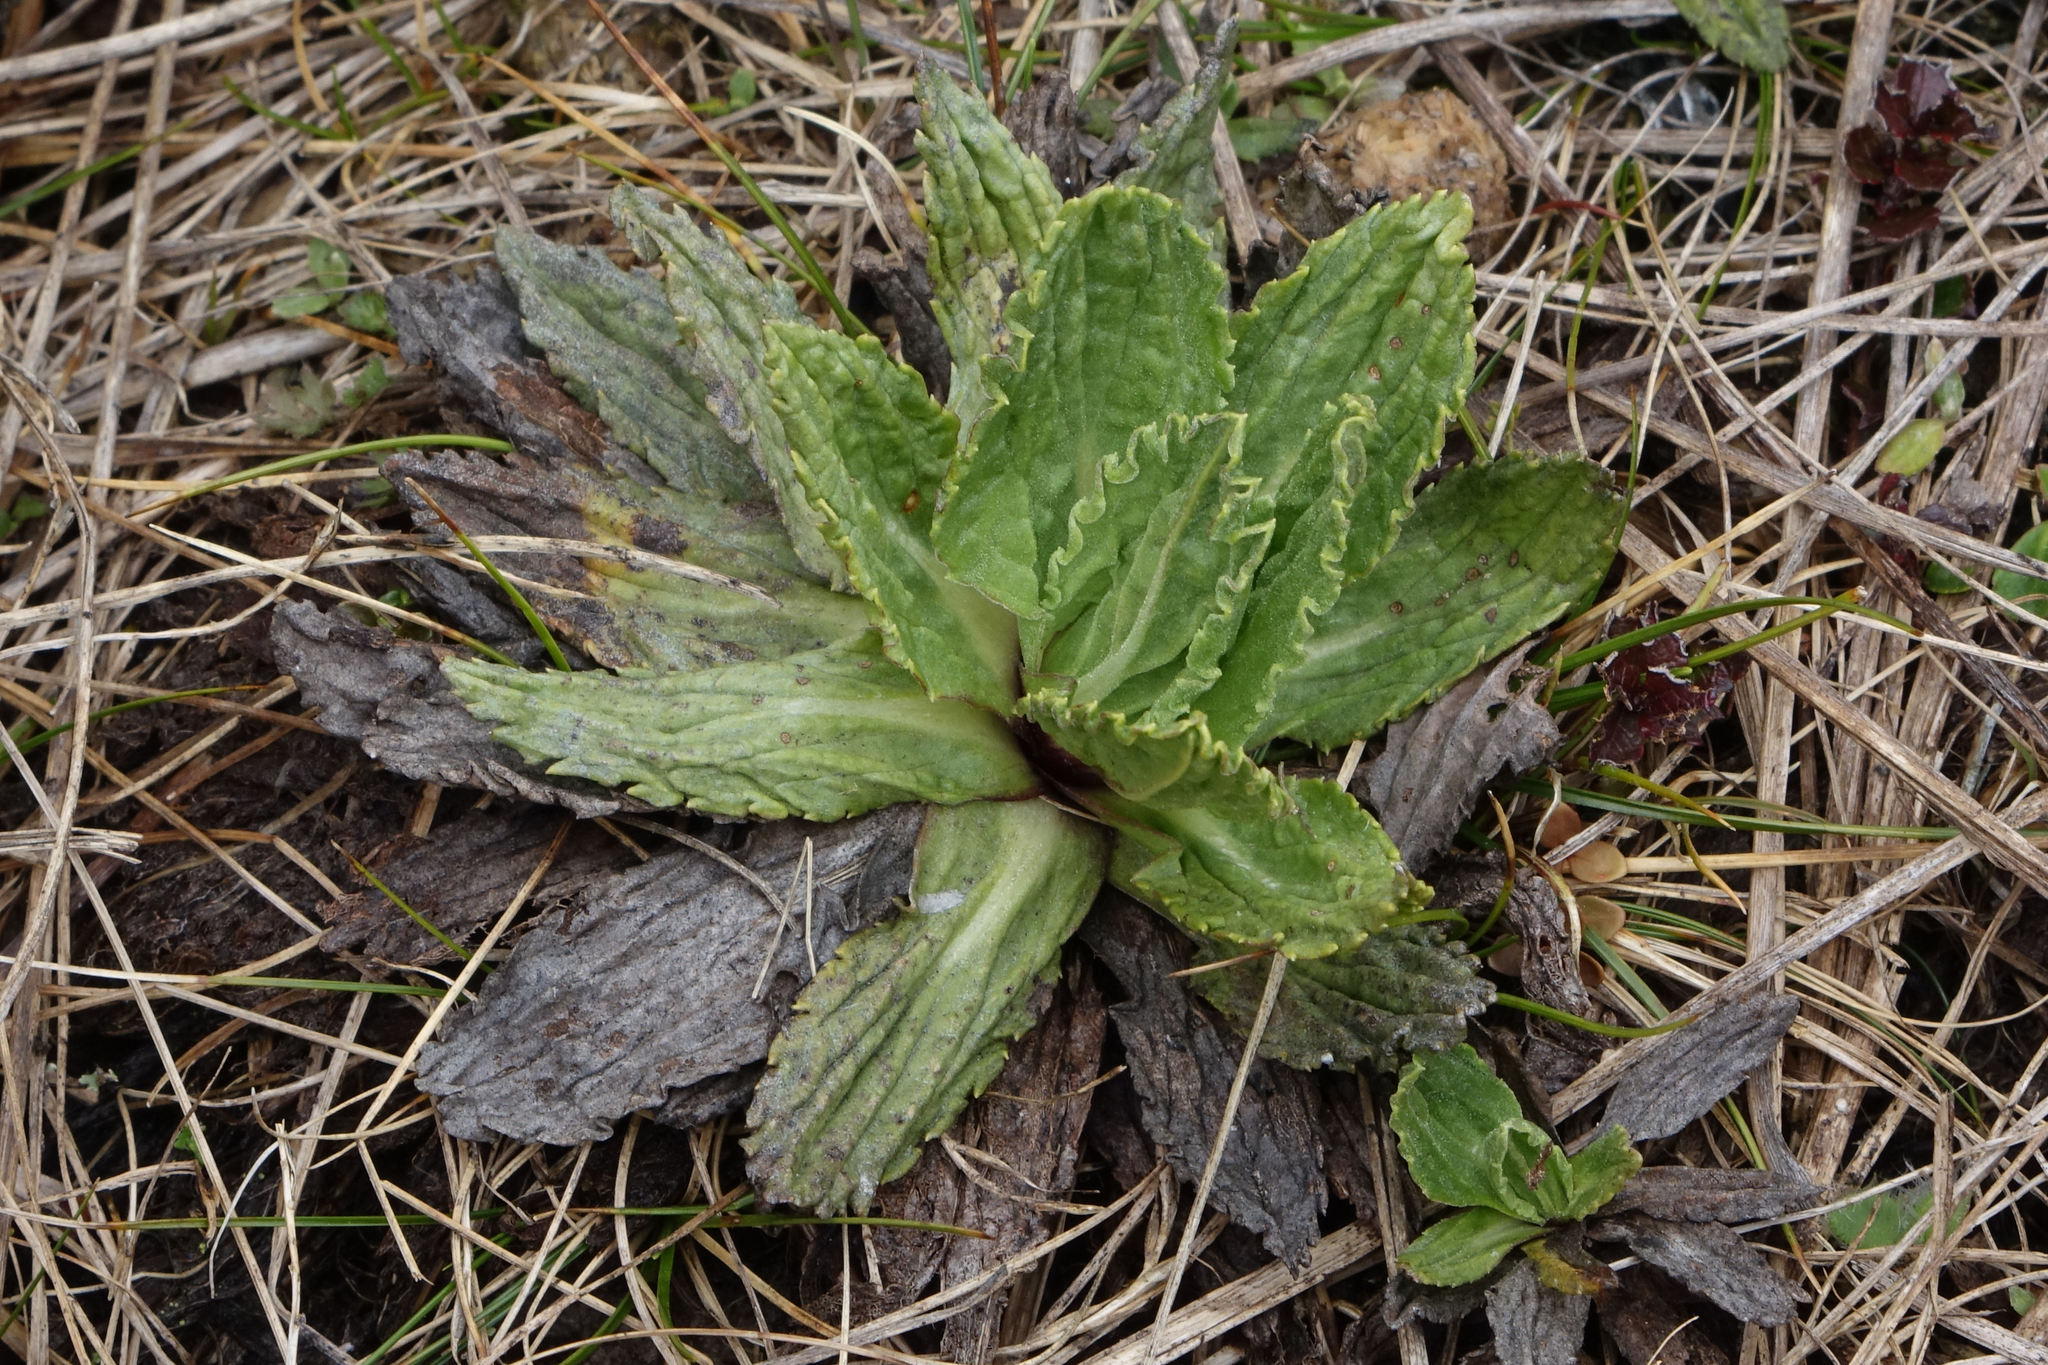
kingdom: Plantae
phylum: Tracheophyta
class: Magnoliopsida
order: Asterales
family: Asteraceae
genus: Celmisia
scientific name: Celmisia prorepens
